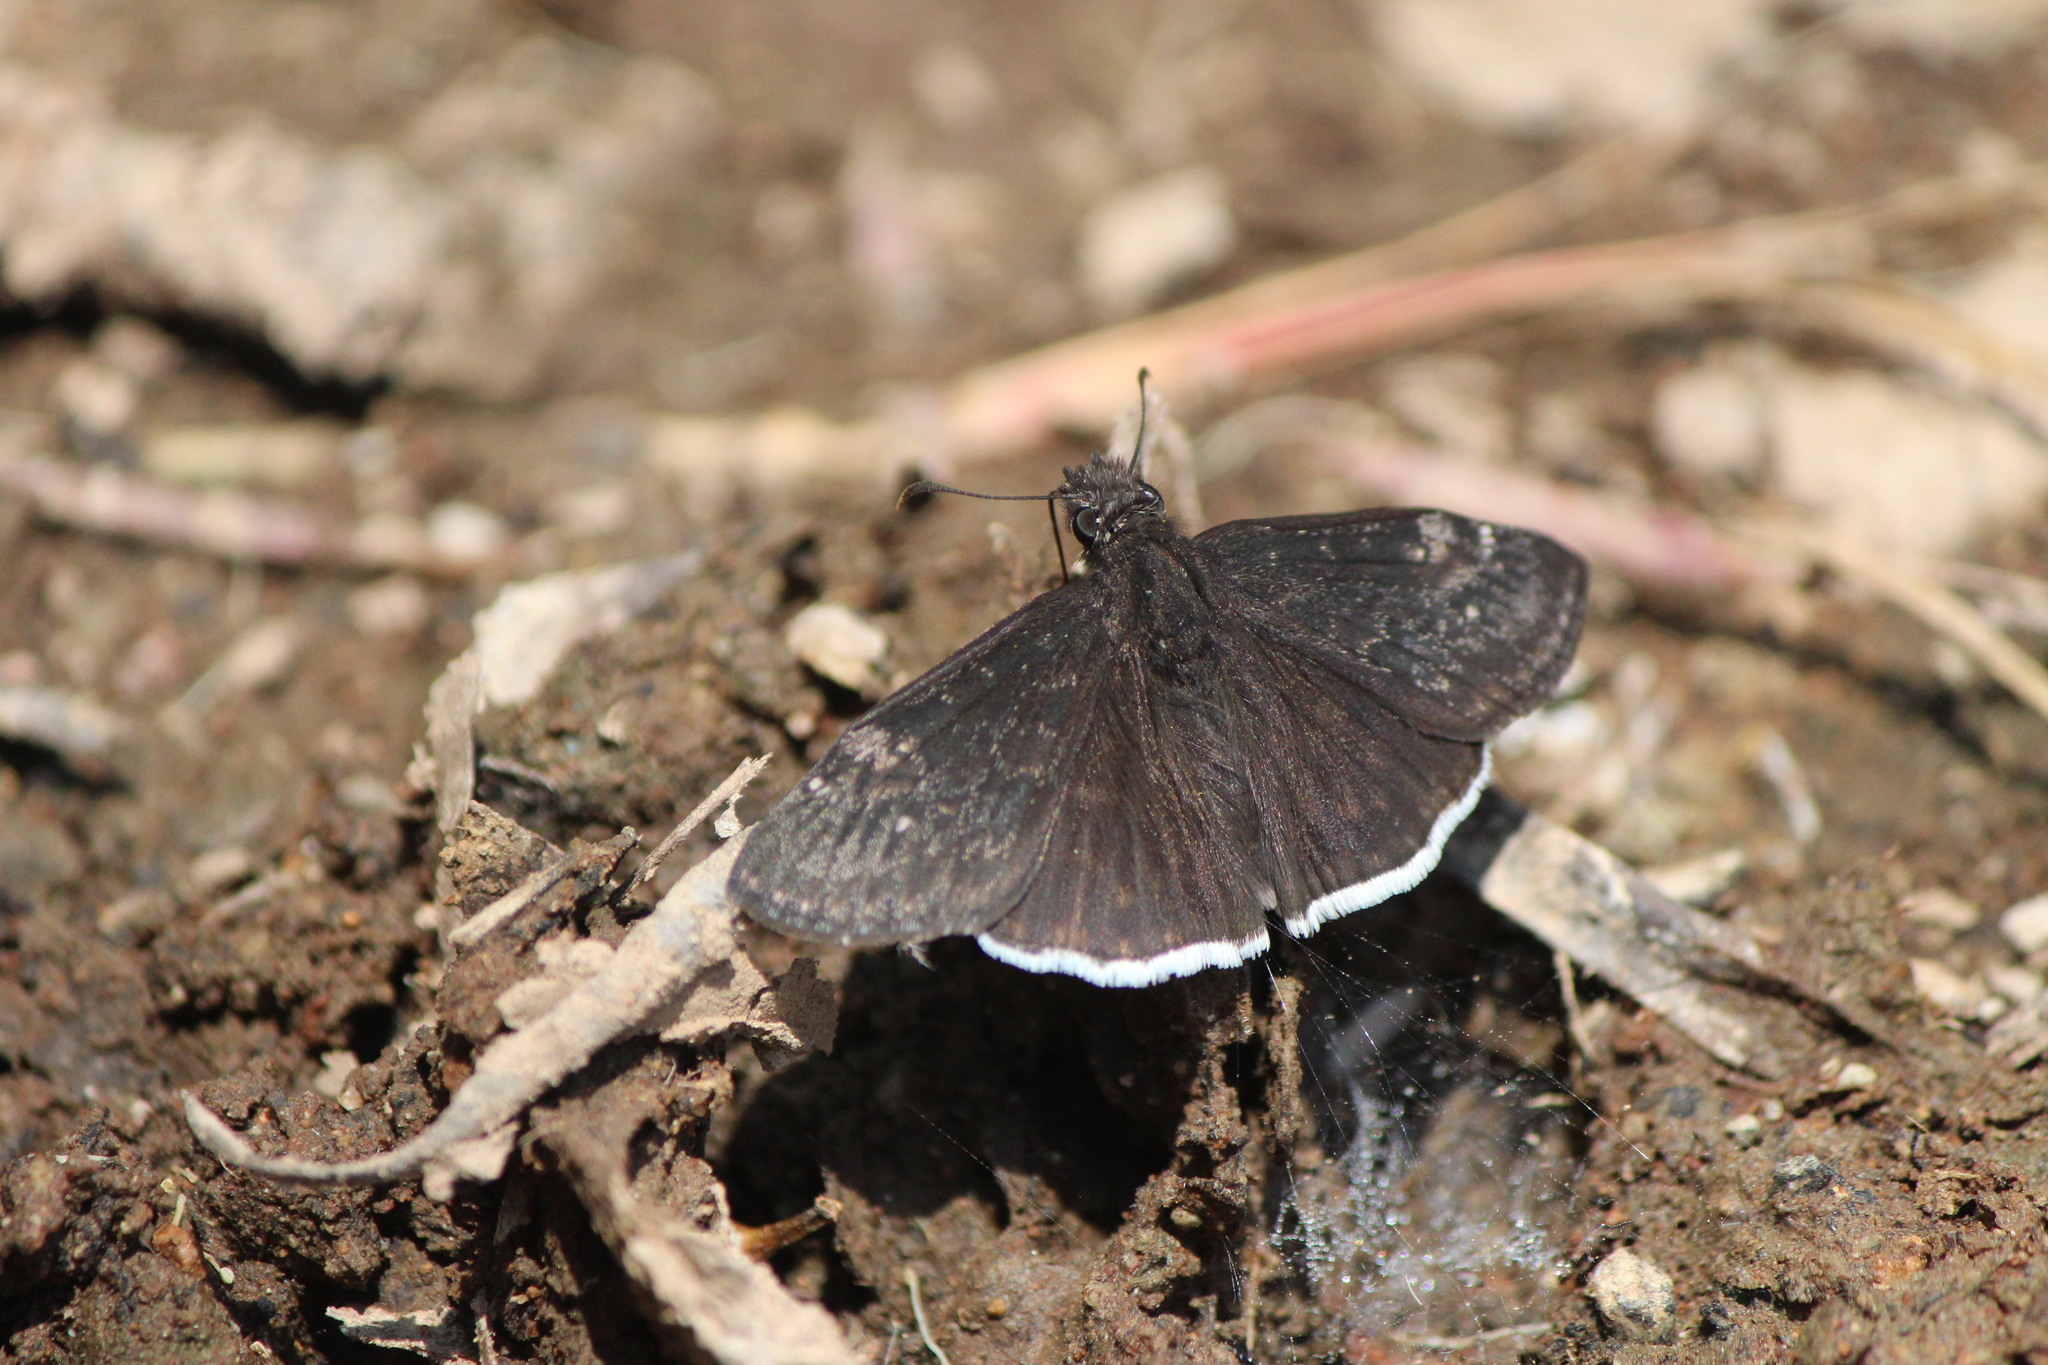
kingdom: Animalia
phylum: Arthropoda
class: Insecta
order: Lepidoptera
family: Hesperiidae
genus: Erynnis
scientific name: Erynnis funeralis
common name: Funereal duskywing
